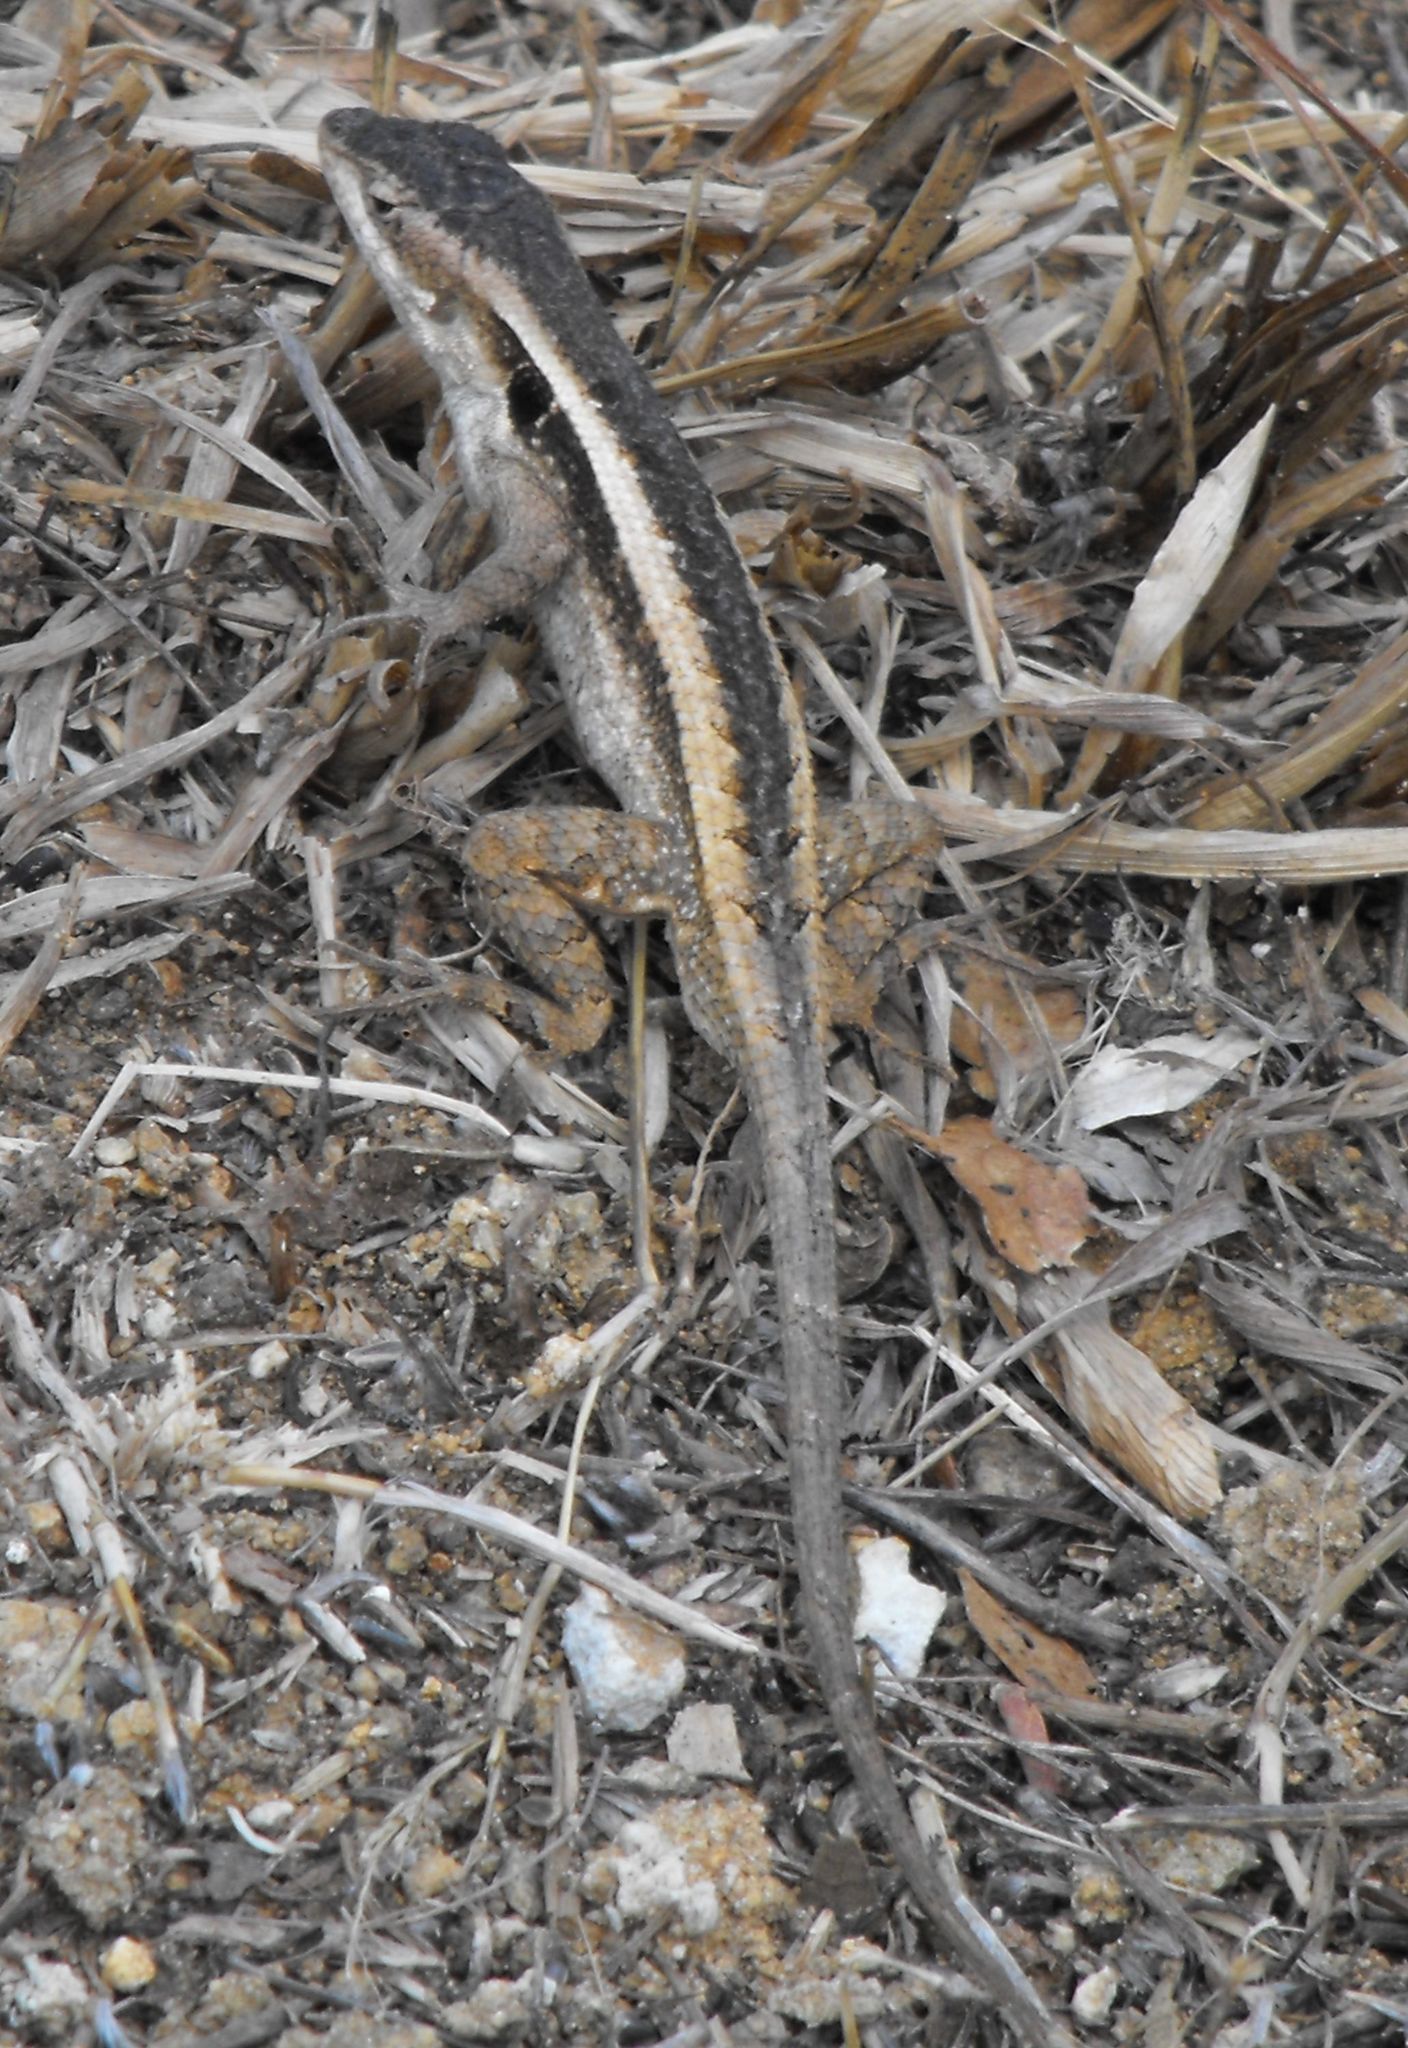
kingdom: Animalia
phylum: Chordata
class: Squamata
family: Phrynosomatidae
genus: Sceloporus
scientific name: Sceloporus smithi
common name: Smith's rosebelly lizard
